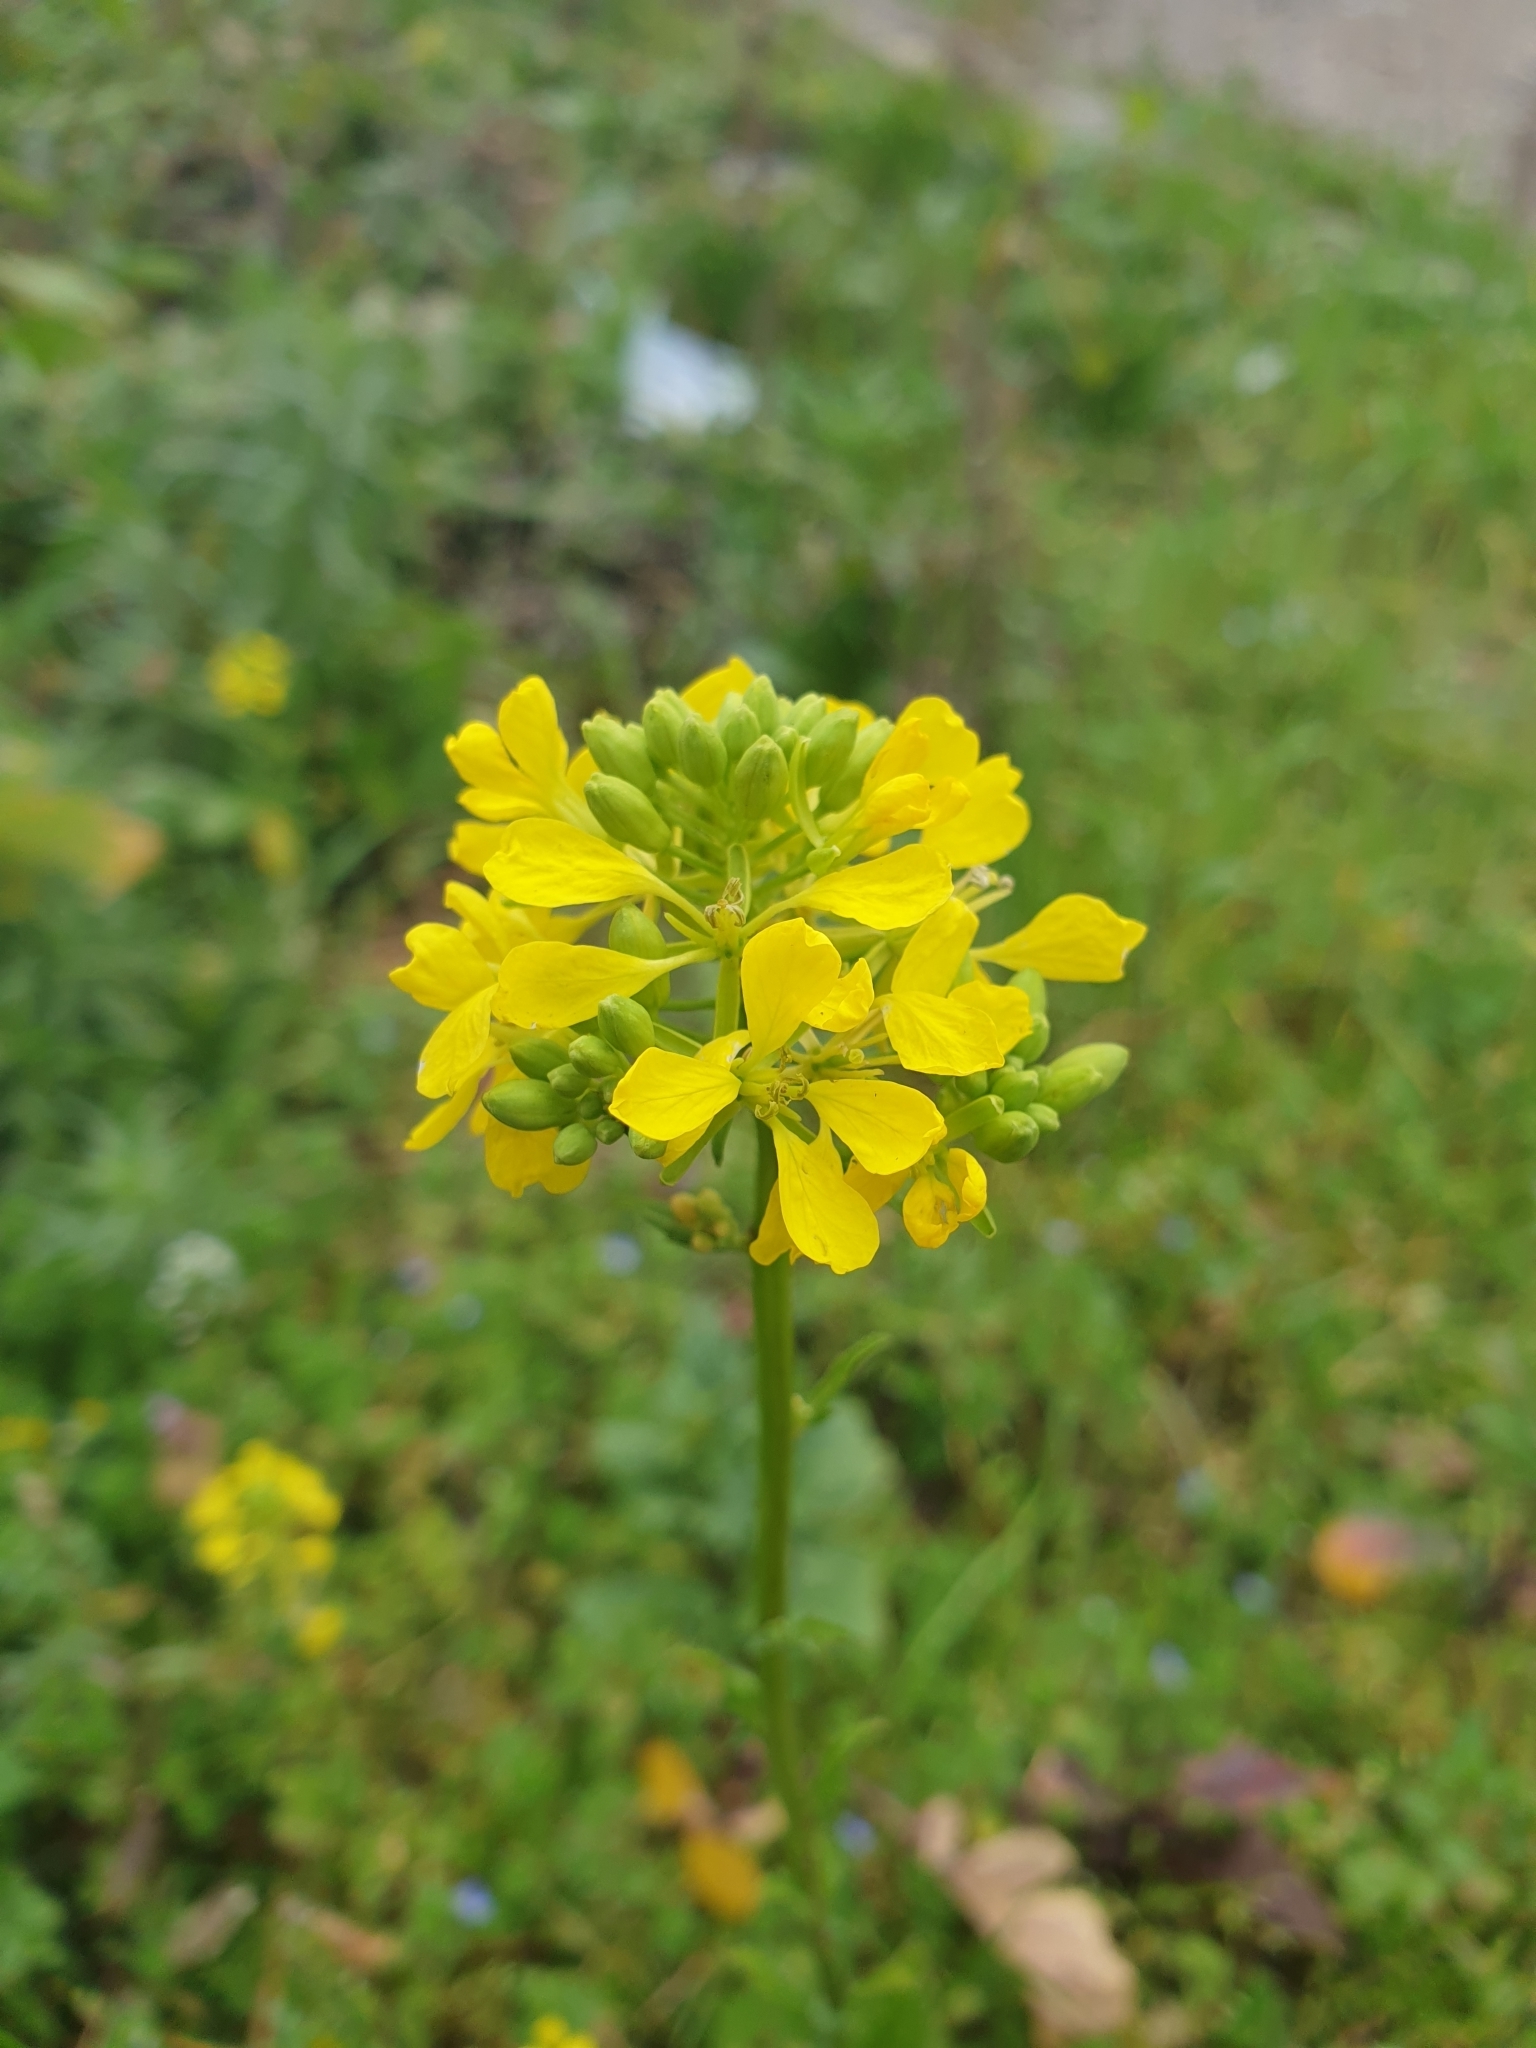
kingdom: Plantae
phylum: Tracheophyta
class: Magnoliopsida
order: Brassicales
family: Brassicaceae
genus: Sinapis
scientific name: Sinapis arvensis
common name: Charlock
